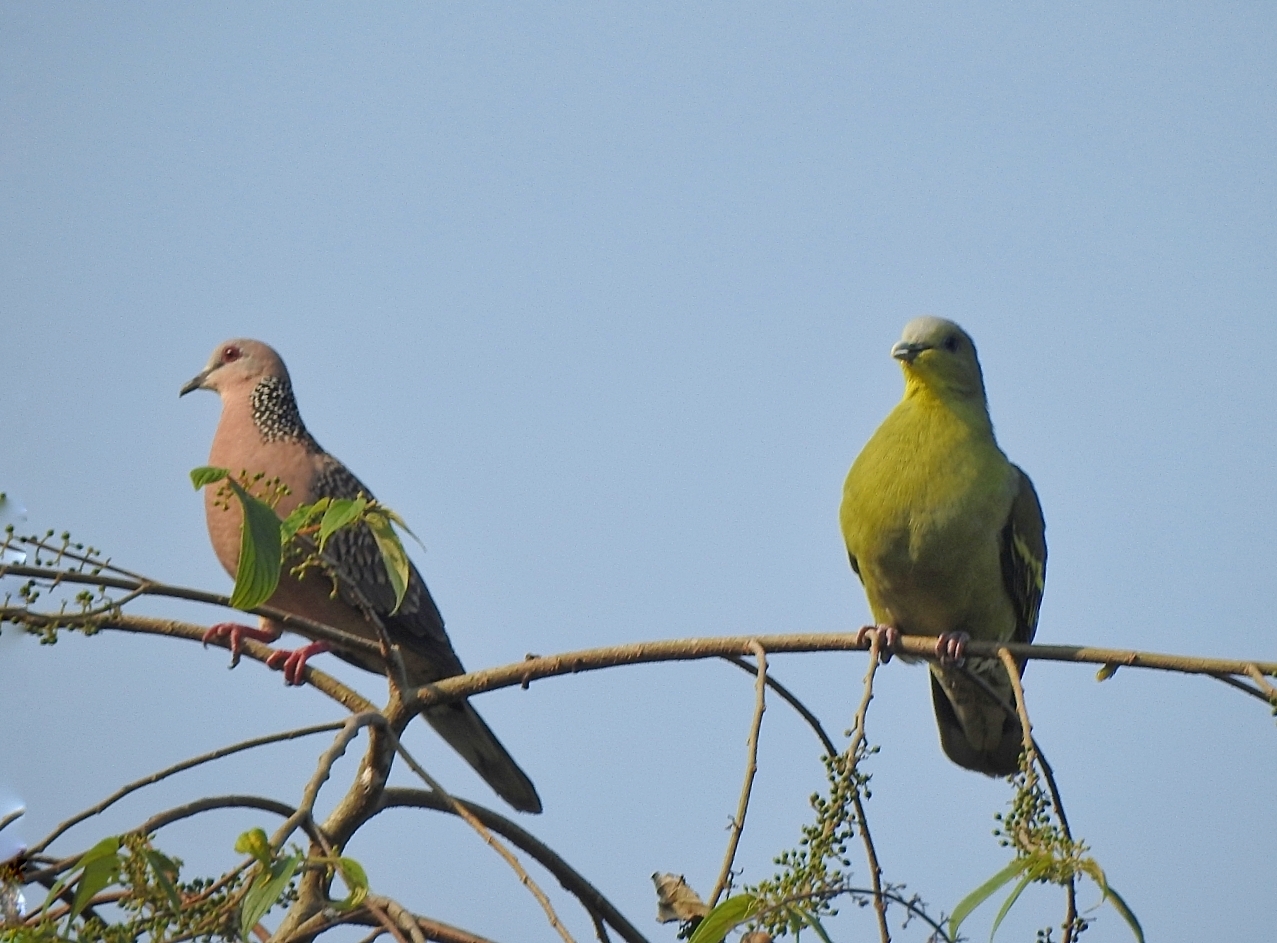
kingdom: Animalia
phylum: Chordata
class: Aves
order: Columbiformes
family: Columbidae
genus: Treron
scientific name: Treron affinis
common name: Grey-fronted green pigeon
